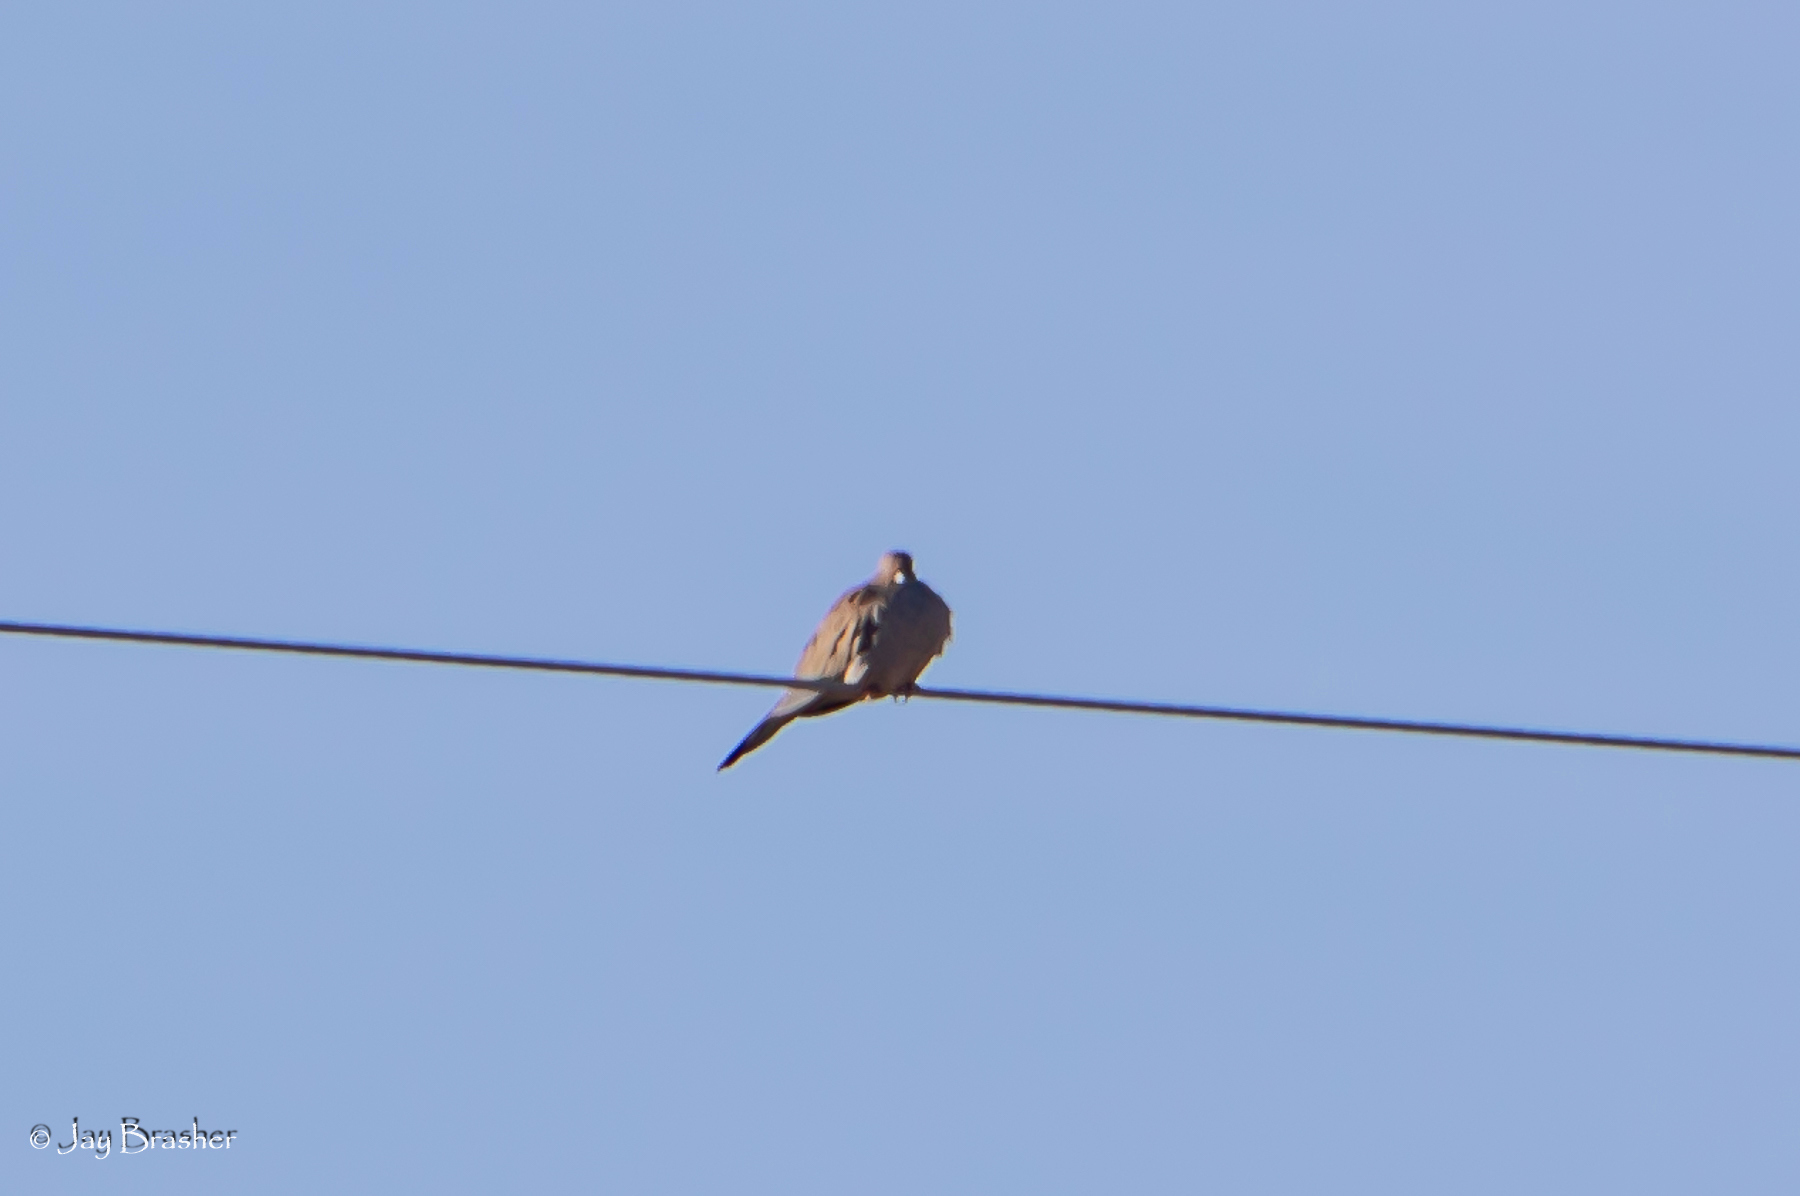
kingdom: Animalia
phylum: Chordata
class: Aves
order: Columbiformes
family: Columbidae
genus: Zenaida
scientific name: Zenaida macroura
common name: Mourning dove
